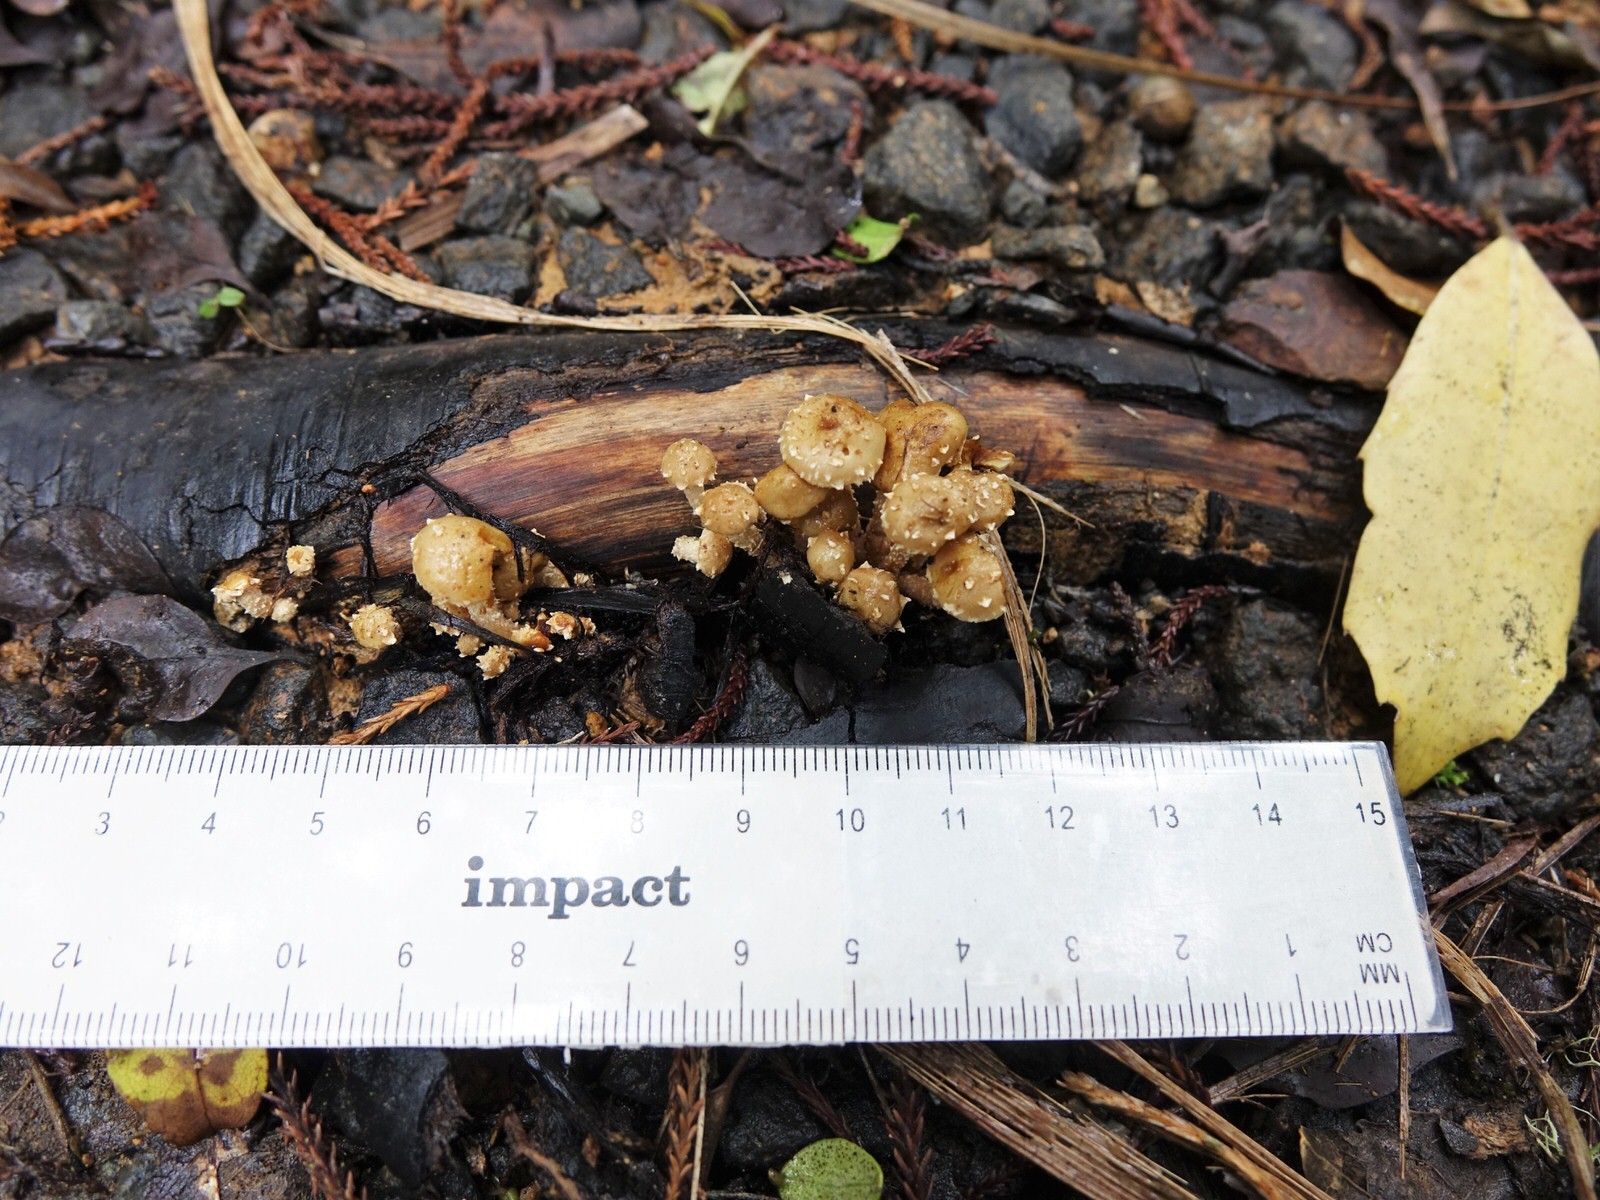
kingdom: Fungi
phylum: Basidiomycota
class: Agaricomycetes
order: Agaricales
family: Strophariaceae
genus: Pholiota
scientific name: Pholiota subflammans
